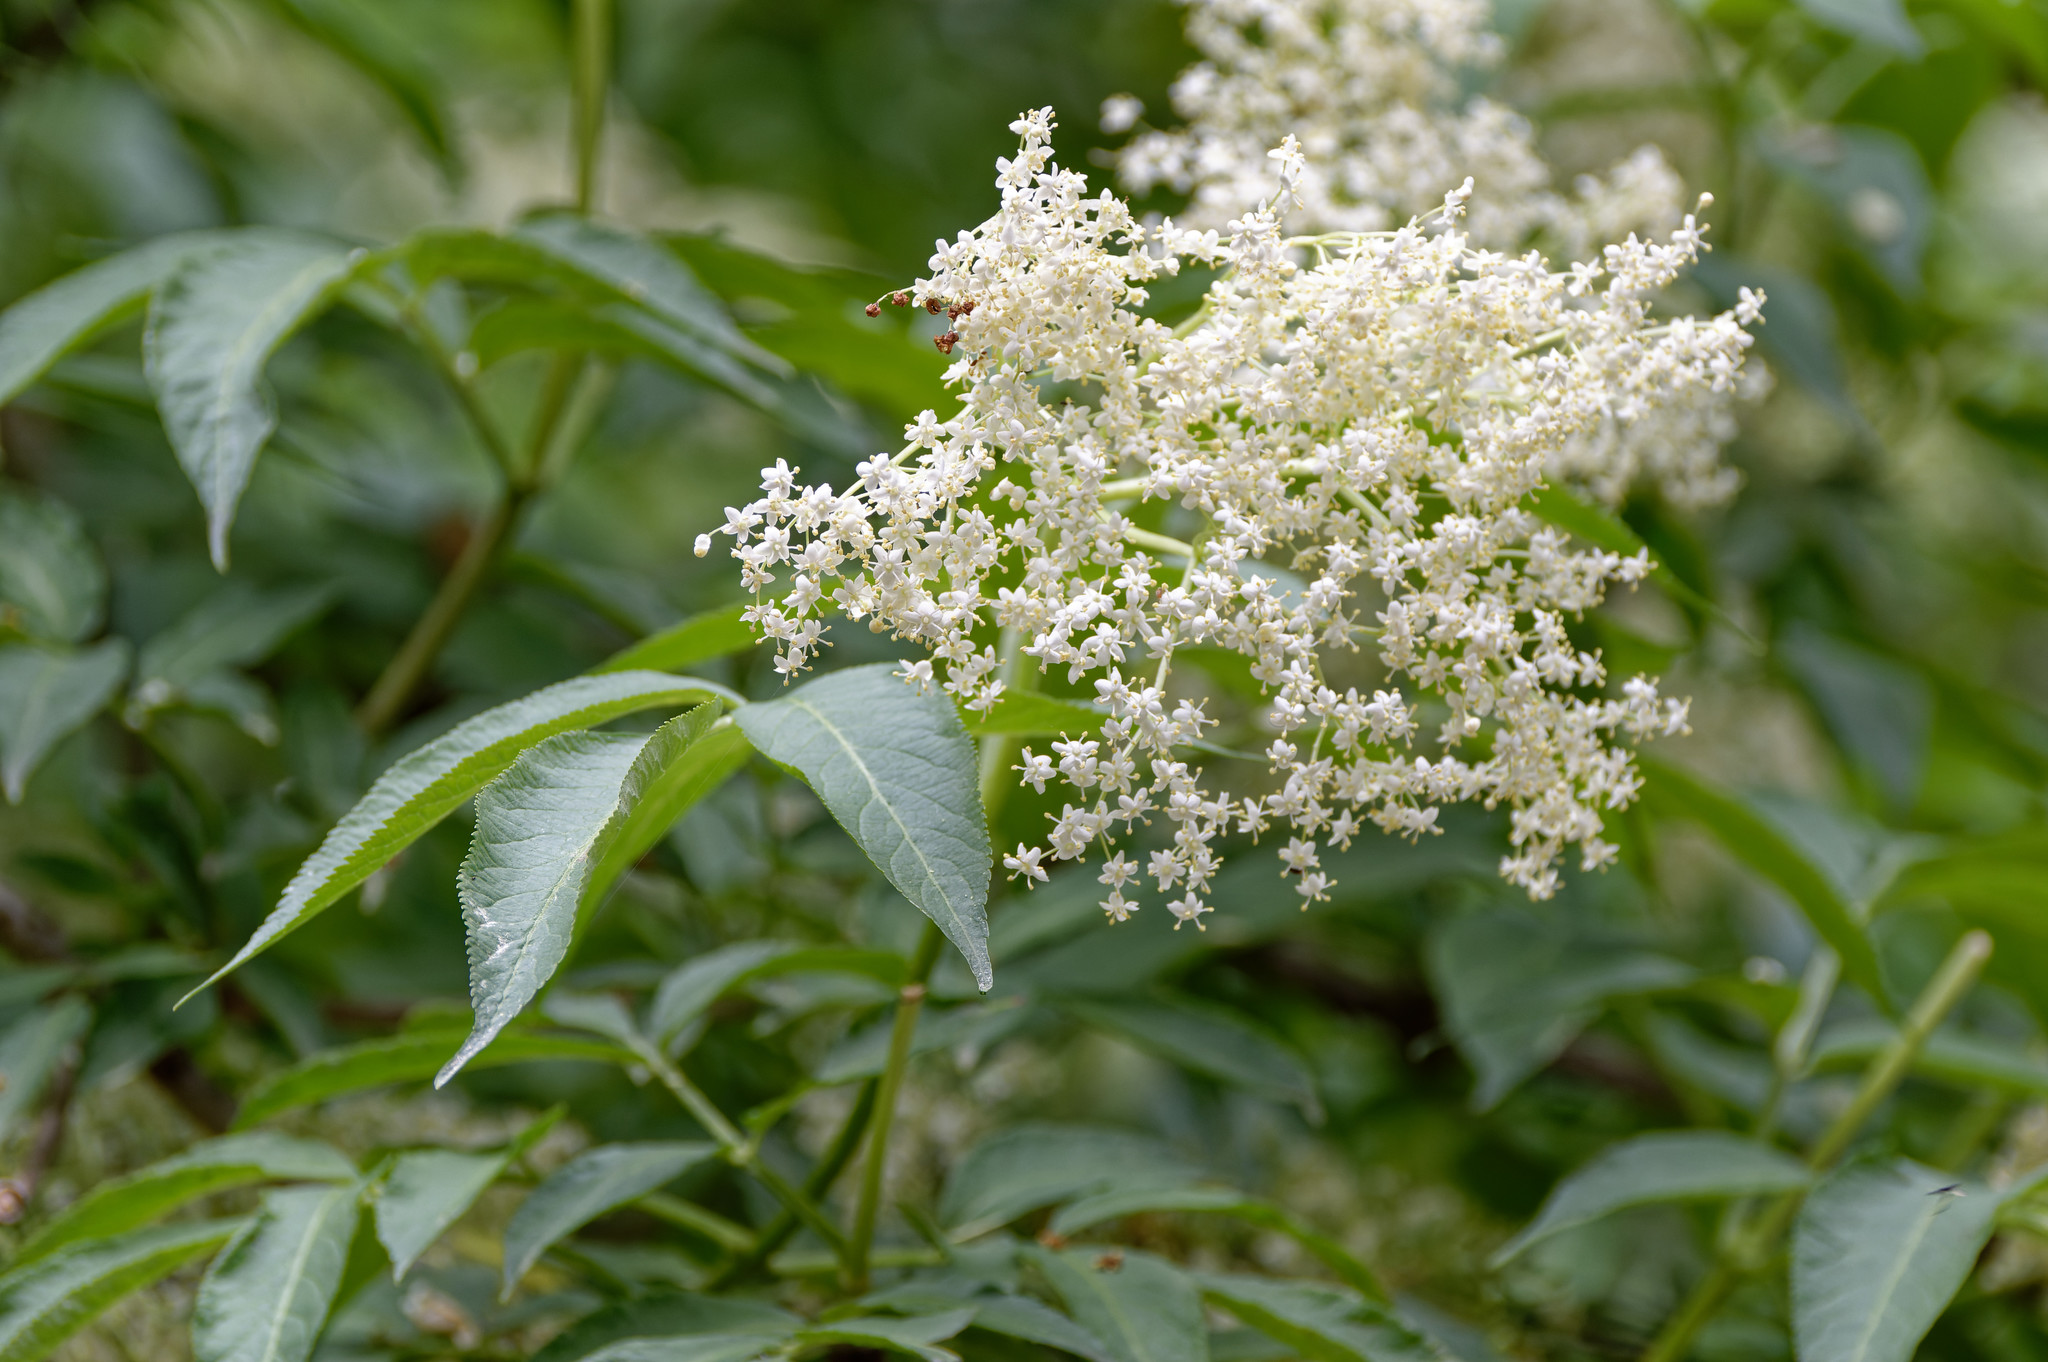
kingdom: Plantae
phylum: Tracheophyta
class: Magnoliopsida
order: Dipsacales
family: Viburnaceae
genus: Sambucus
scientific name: Sambucus nigra
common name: Elder
